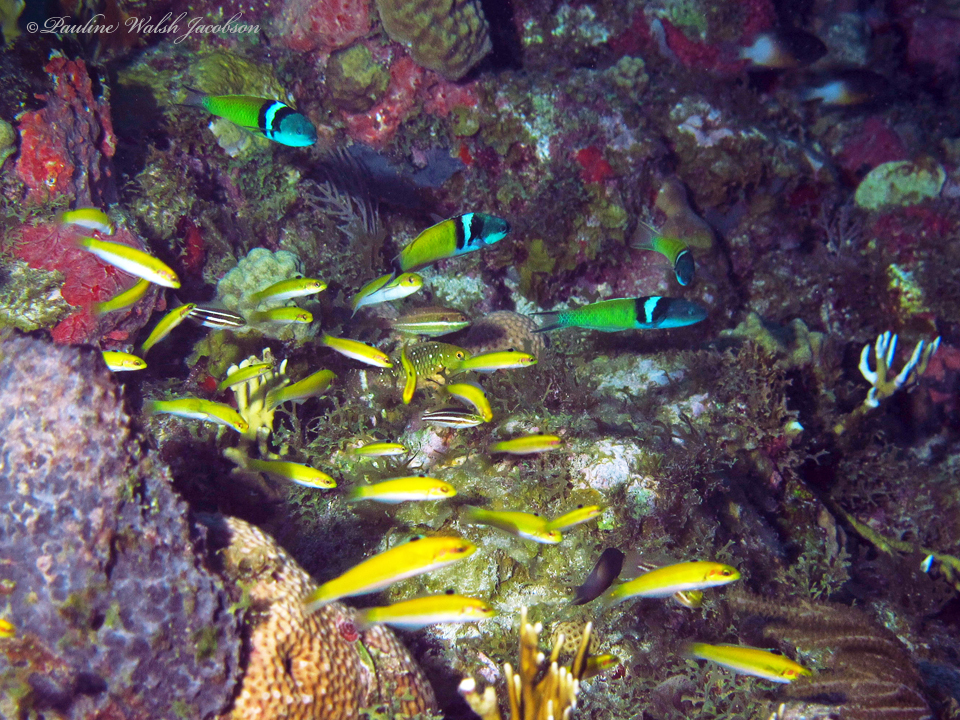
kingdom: Animalia
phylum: Chordata
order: Perciformes
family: Labridae
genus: Thalassoma
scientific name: Thalassoma bifasciatum
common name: Bluehead wrasse
